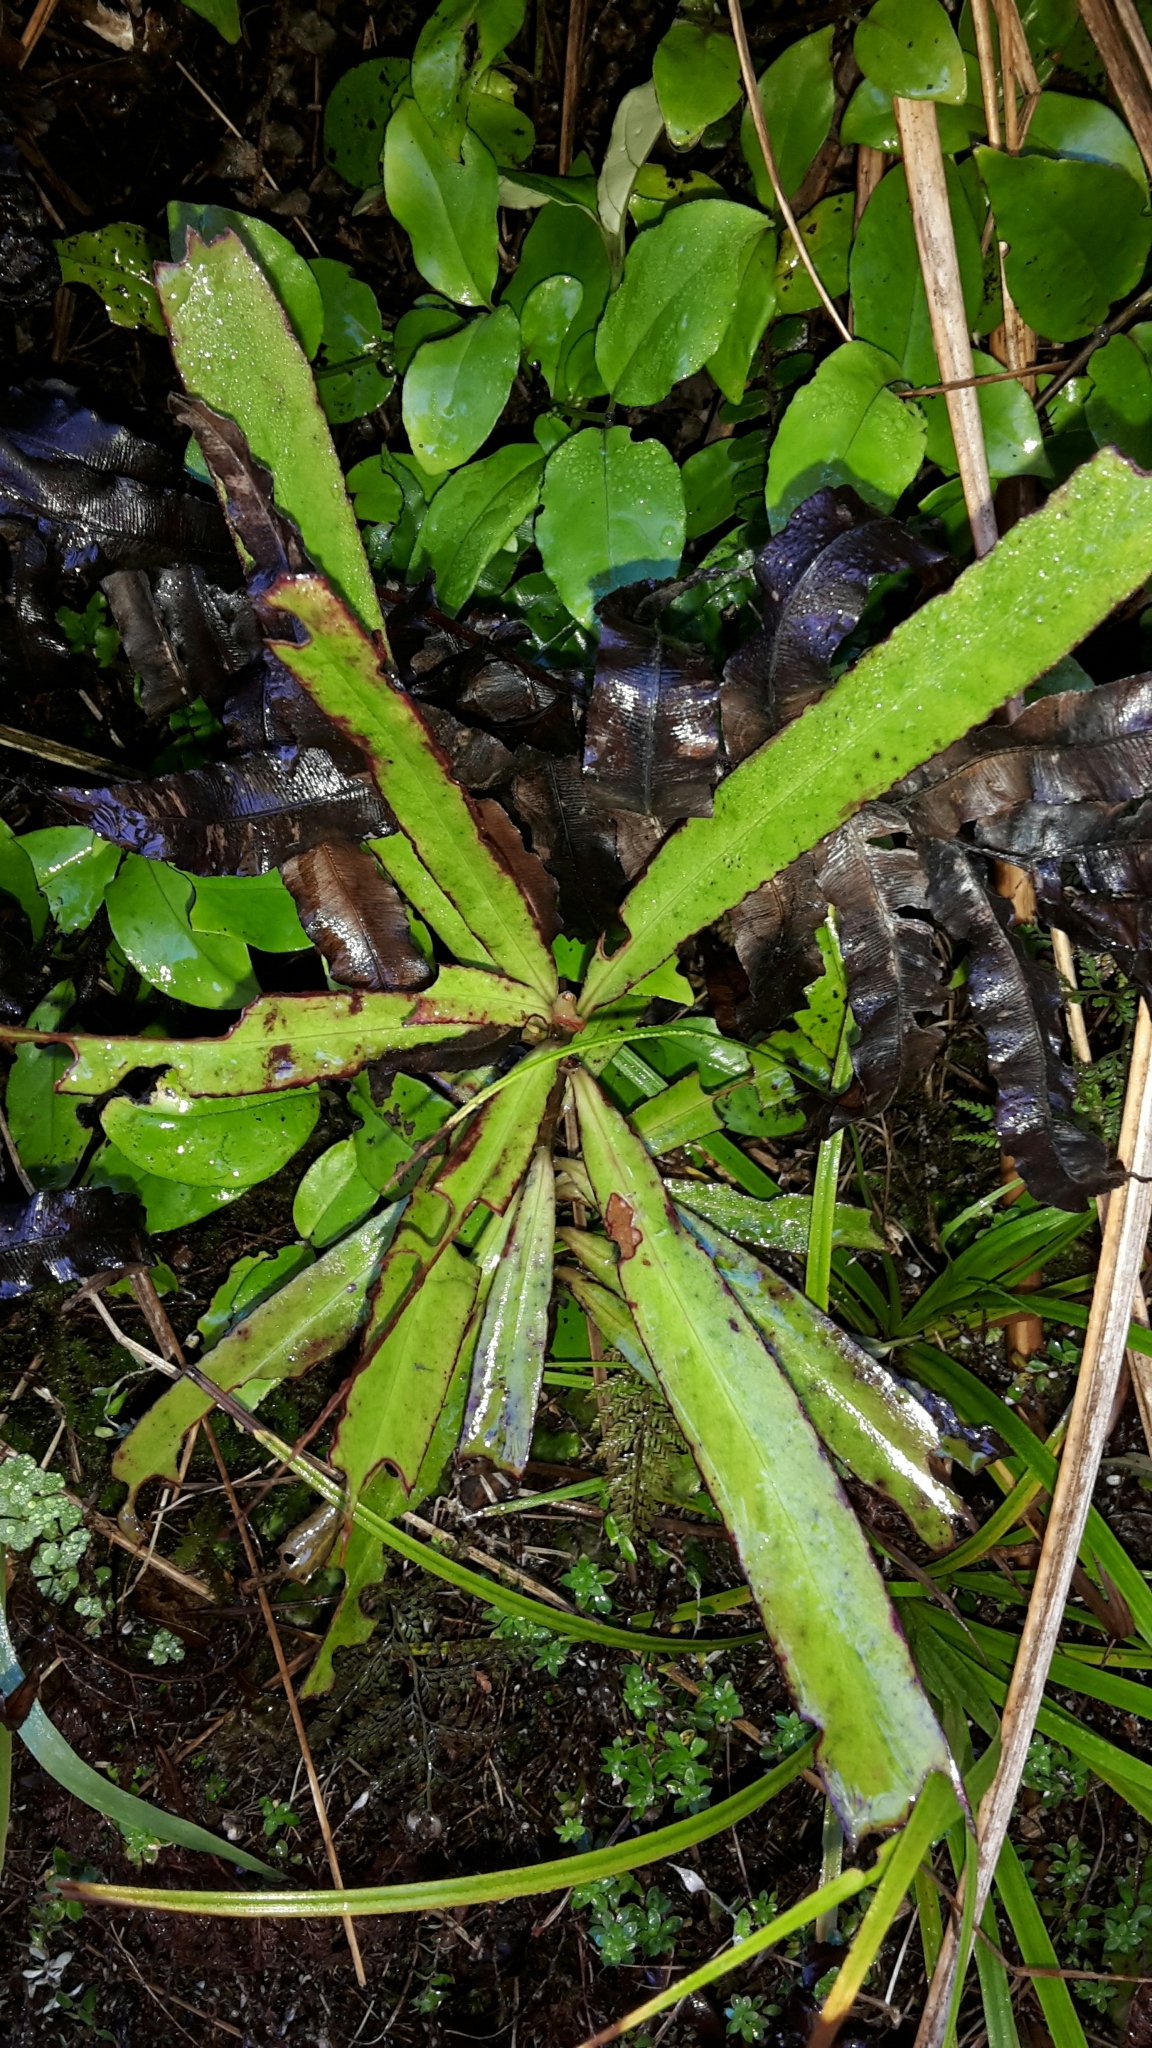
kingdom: Plantae
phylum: Tracheophyta
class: Magnoliopsida
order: Ericales
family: Primulaceae
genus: Myrsine
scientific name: Myrsine salicina
